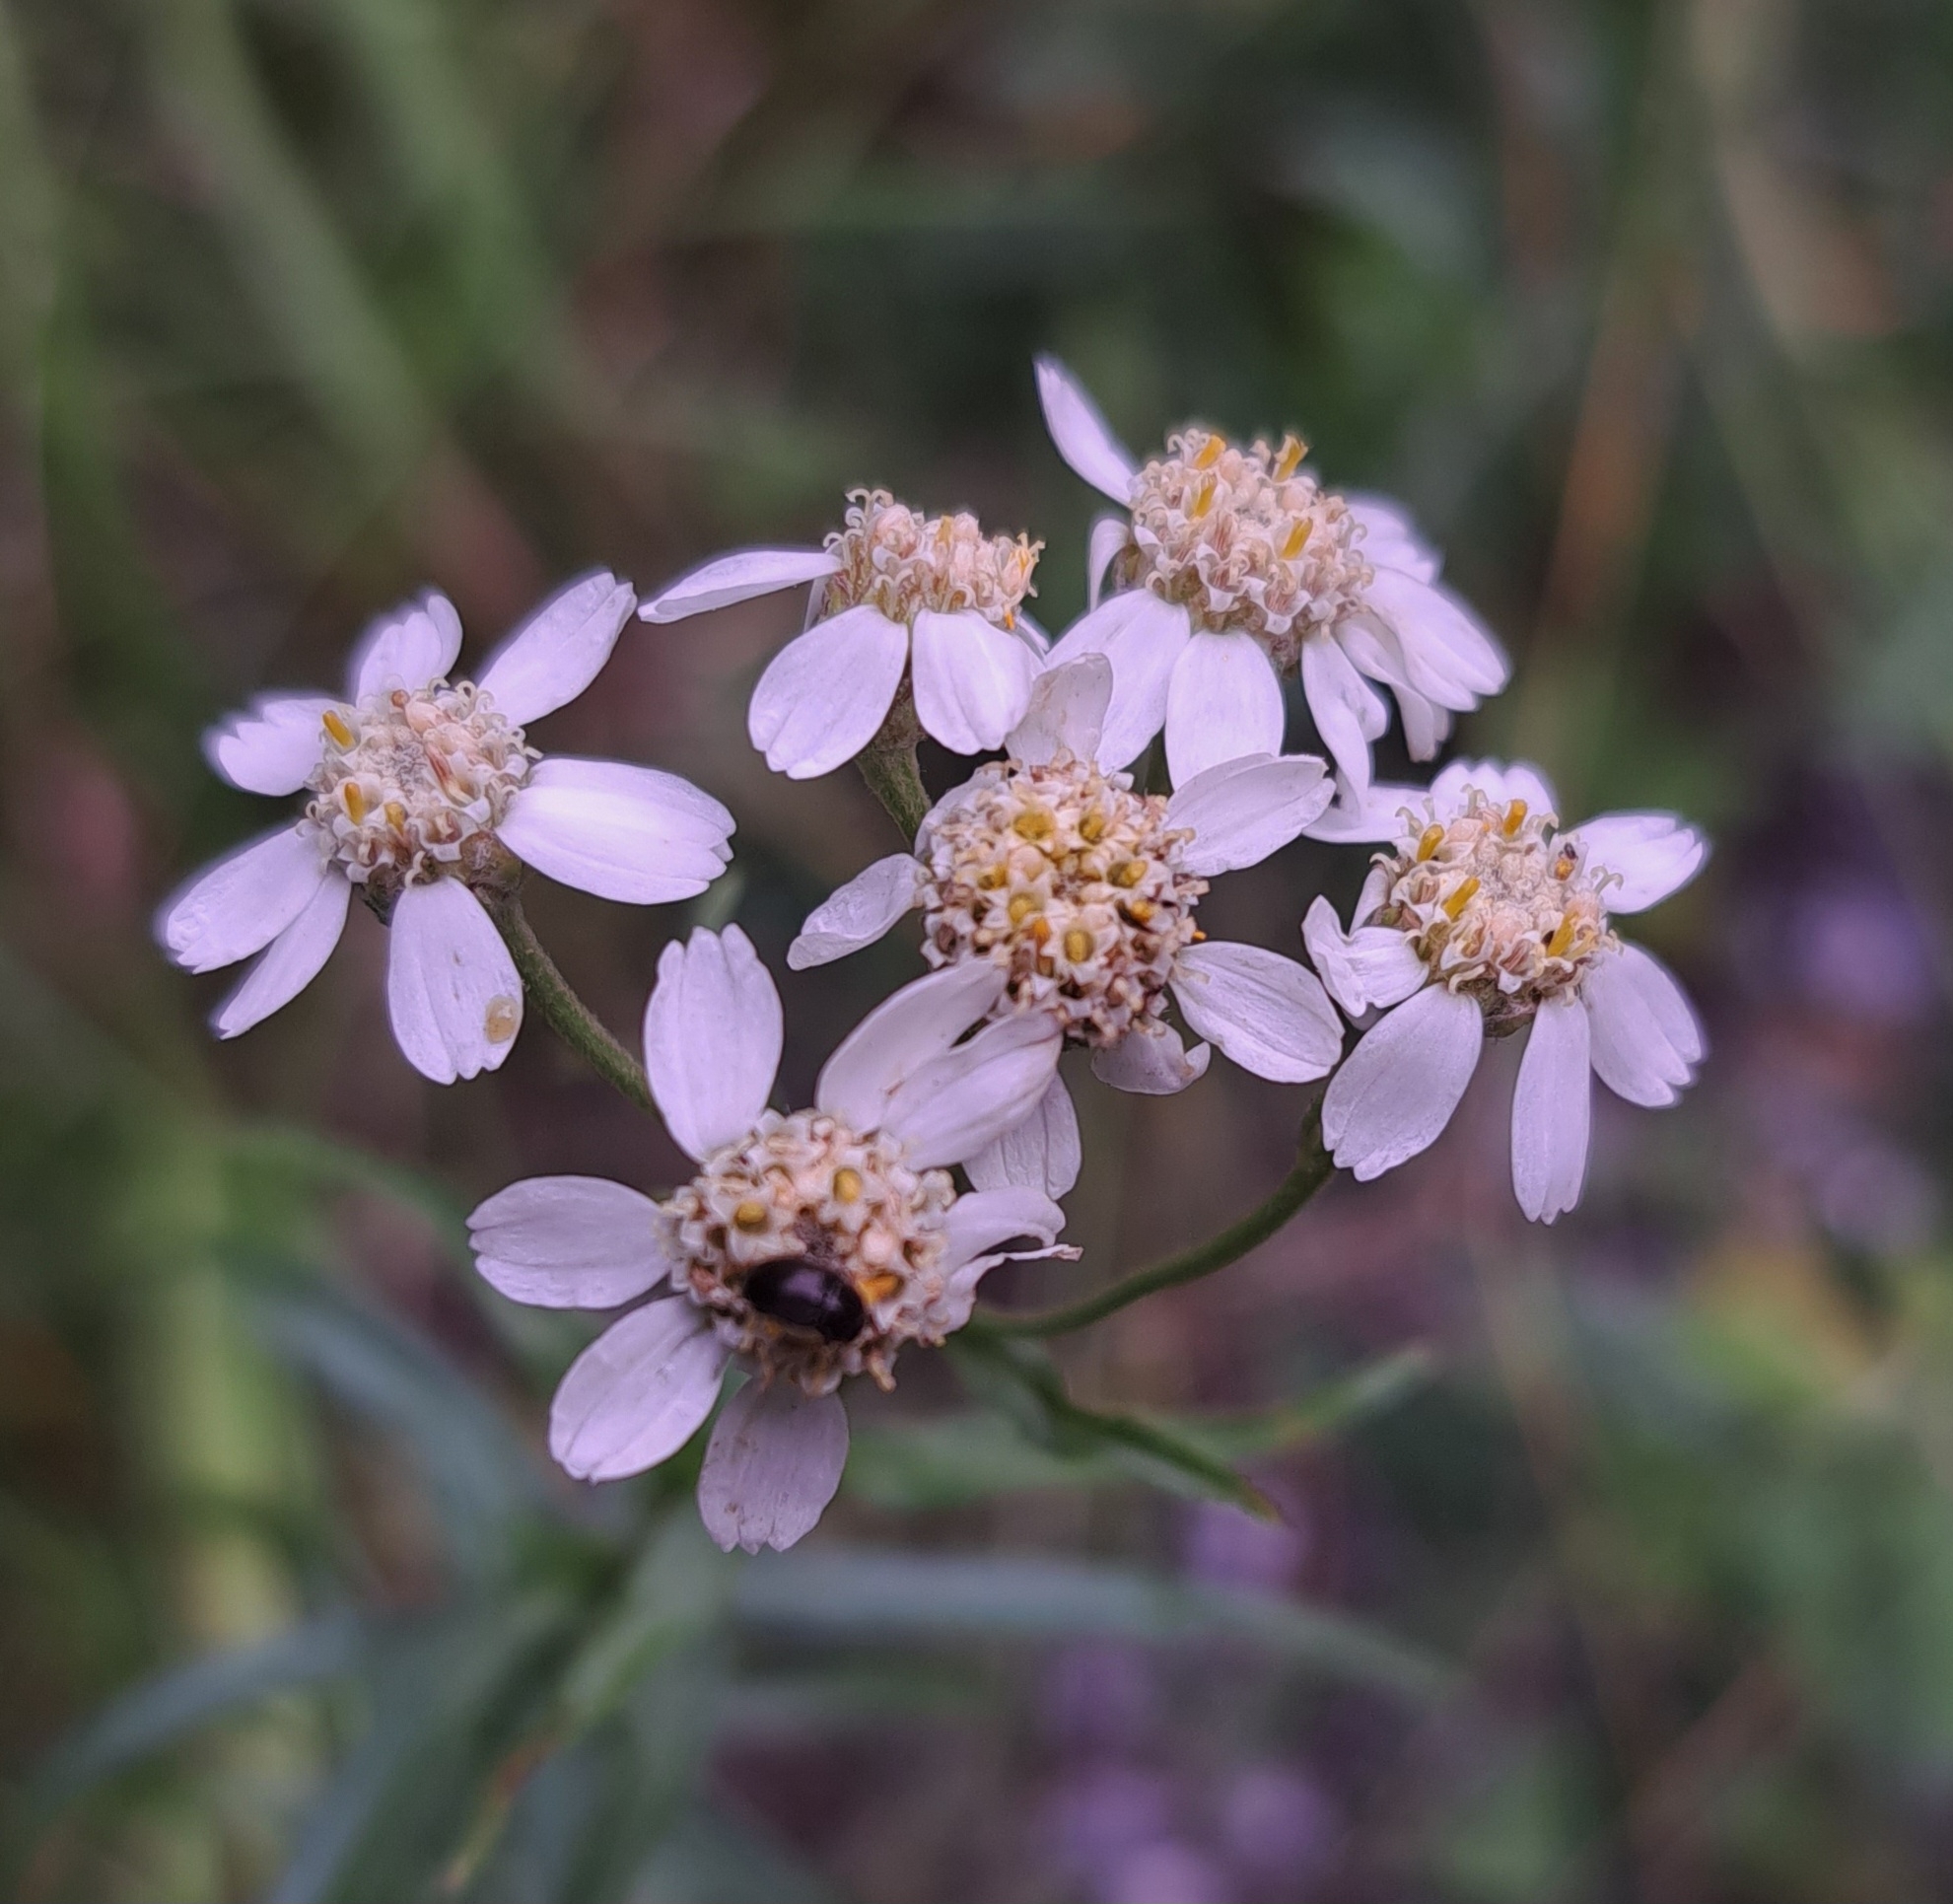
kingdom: Plantae
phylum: Tracheophyta
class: Magnoliopsida
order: Asterales
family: Asteraceae
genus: Achillea
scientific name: Achillea ptarmica
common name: Sneezeweed
